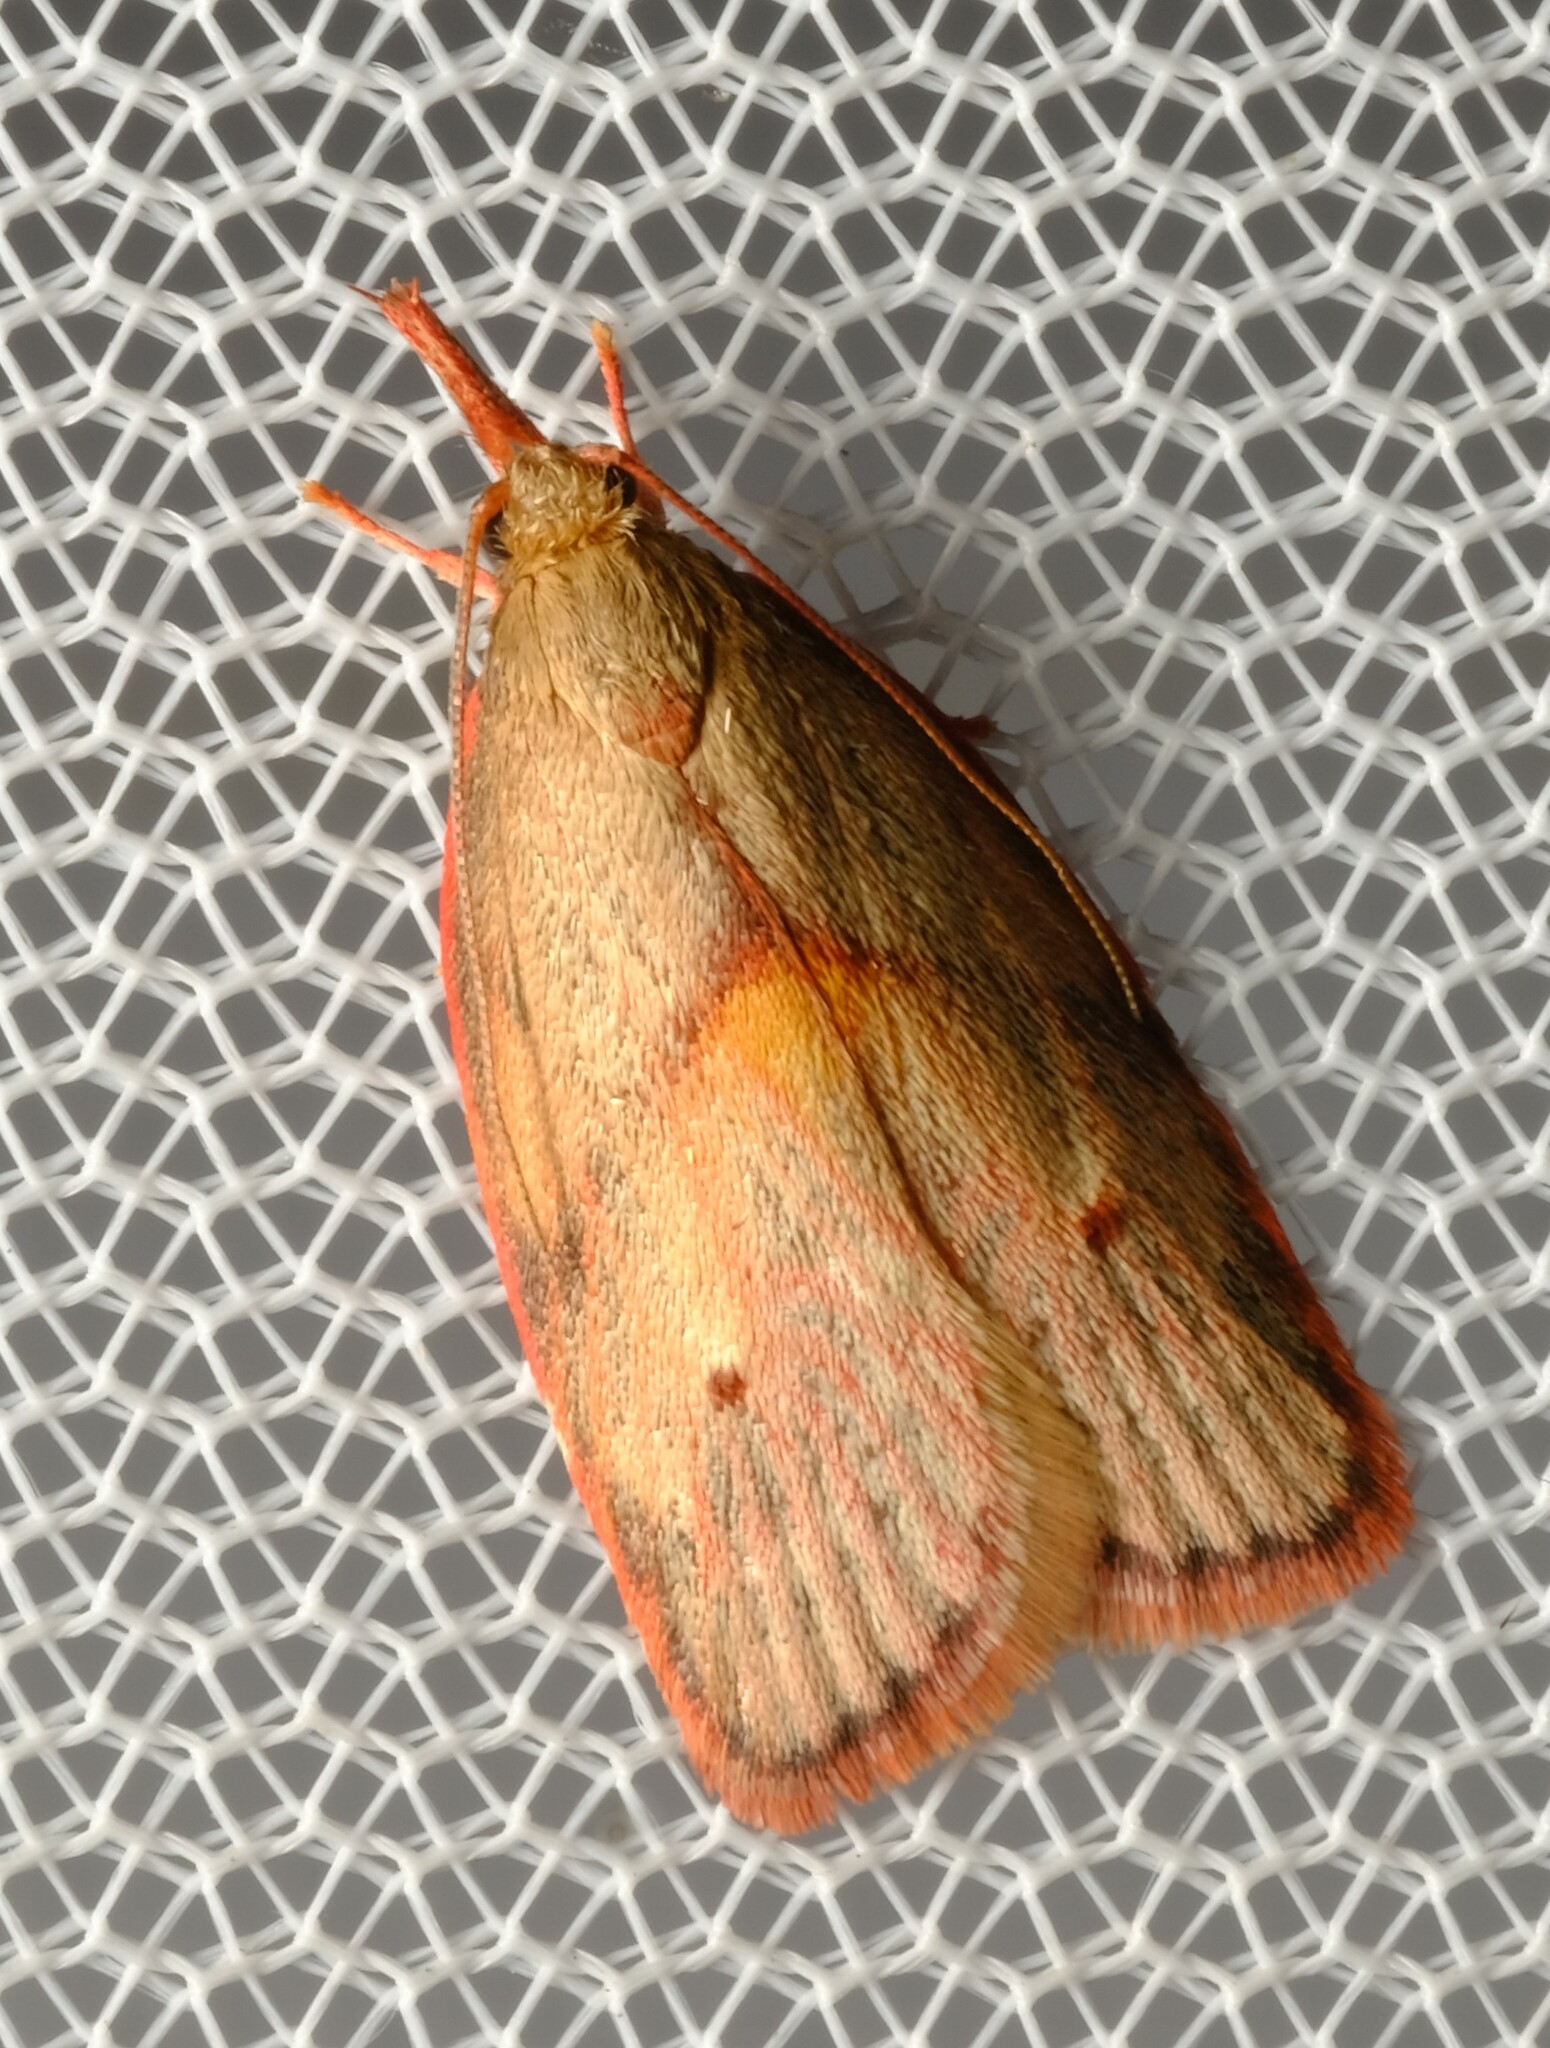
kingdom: Animalia
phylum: Arthropoda
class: Insecta
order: Lepidoptera
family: Depressariidae
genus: Enchocrates
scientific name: Enchocrates glaucopis
